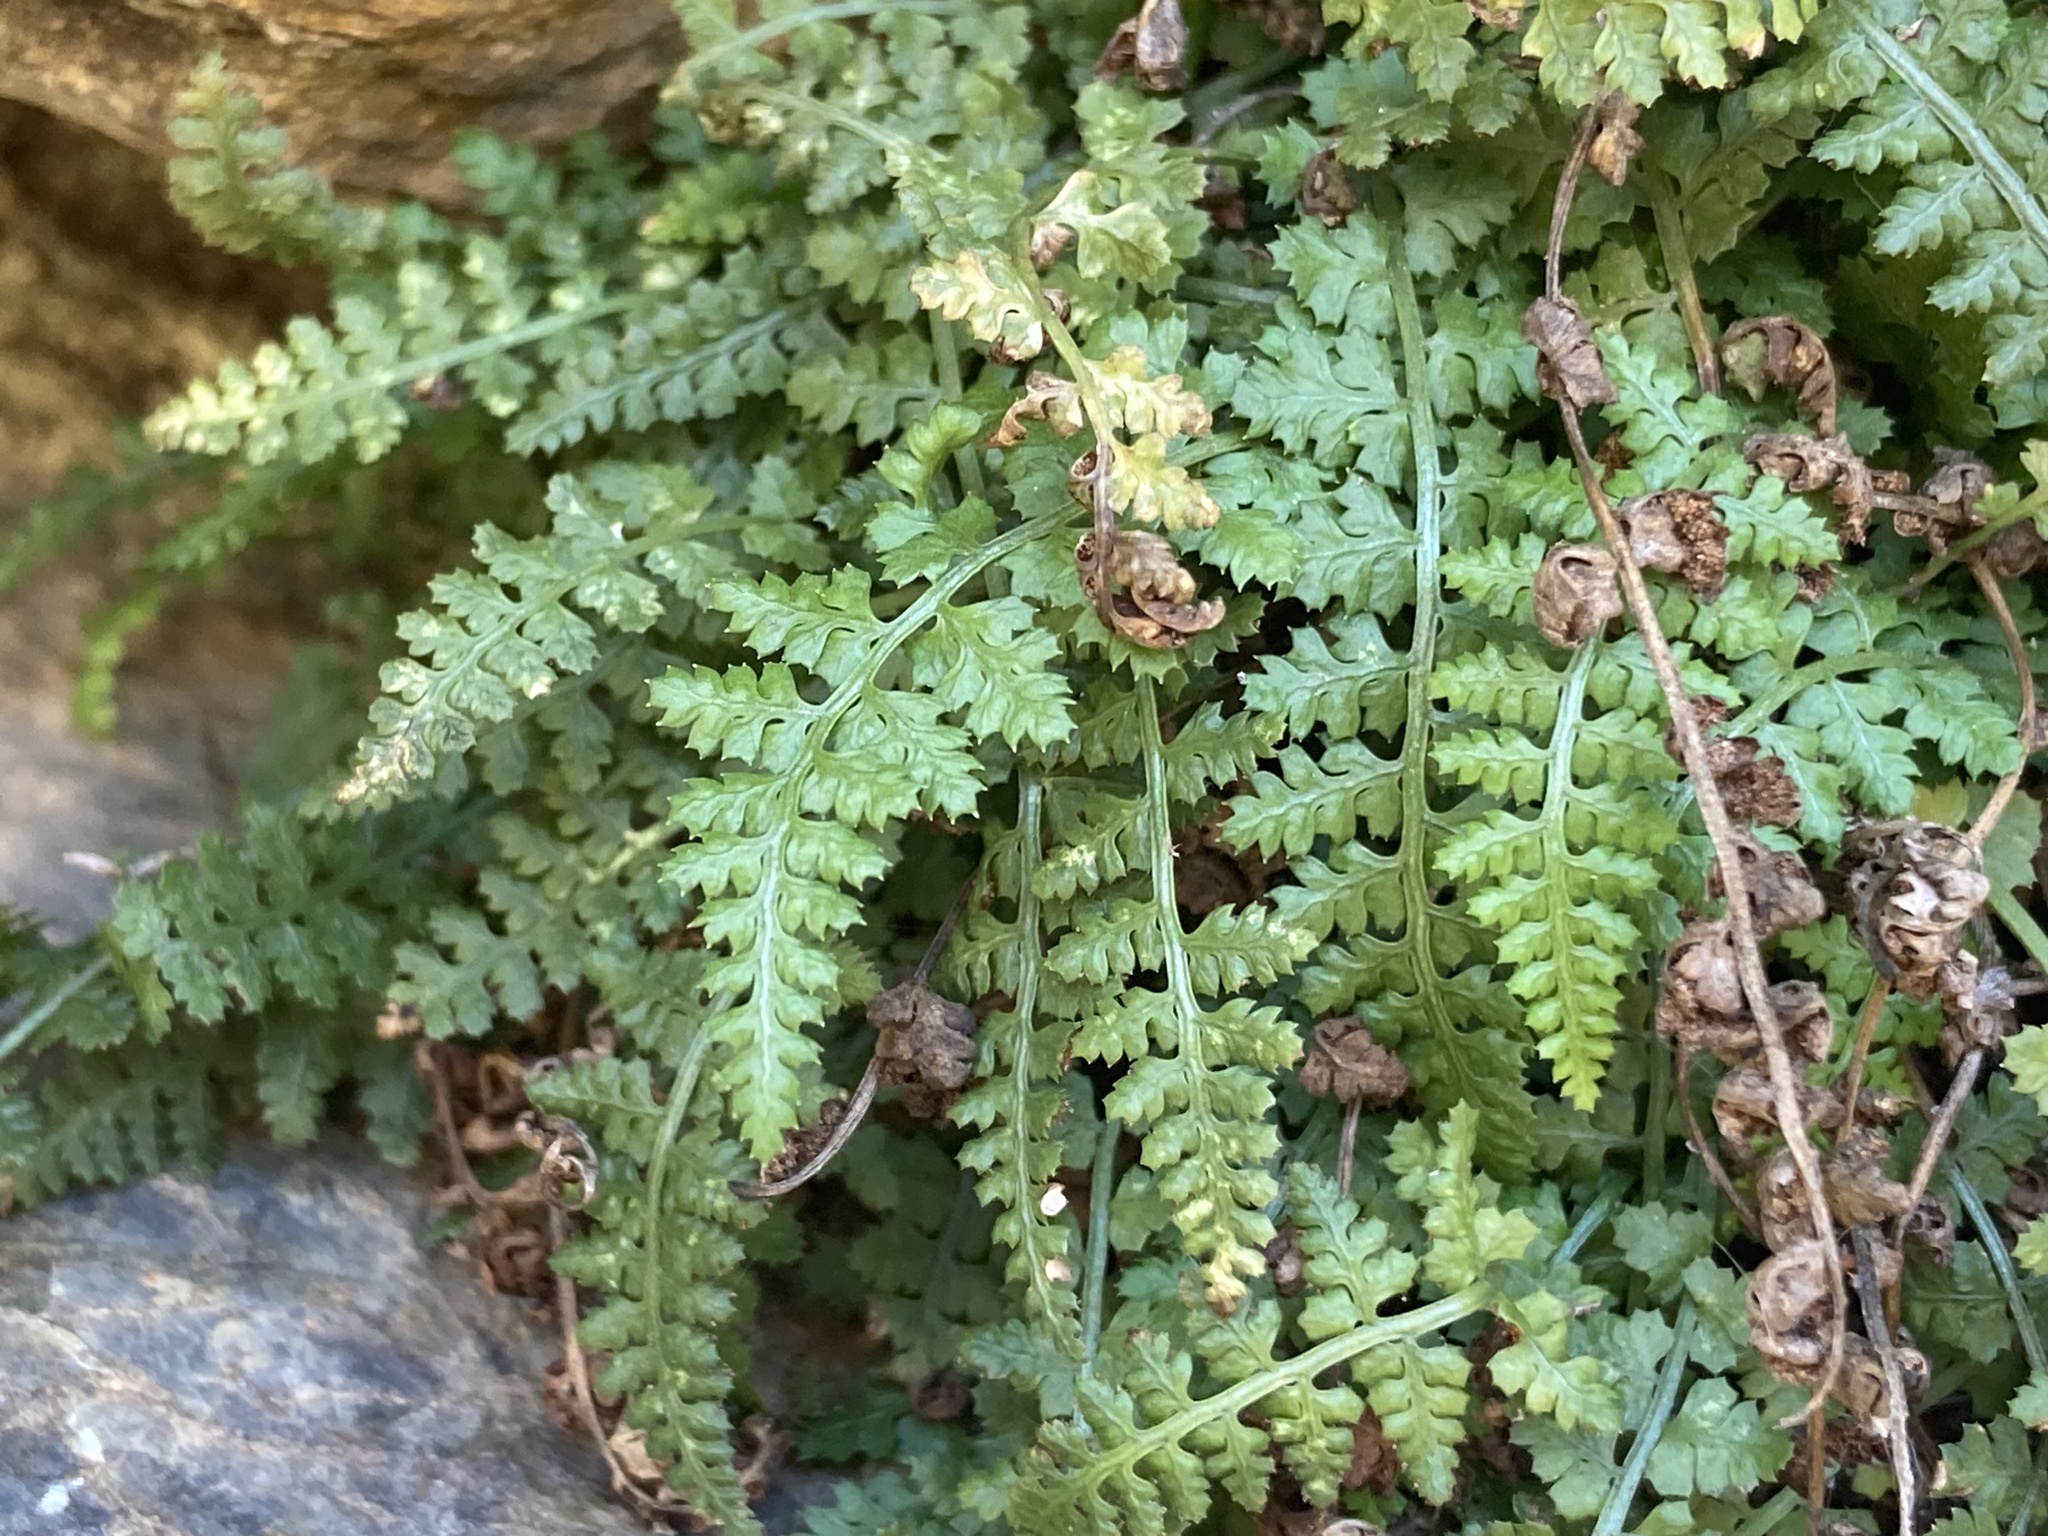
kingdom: Plantae
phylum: Tracheophyta
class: Polypodiopsida
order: Polypodiales
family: Aspleniaceae
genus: Asplenium
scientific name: Asplenium fontanum
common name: Fountain spleenwort
